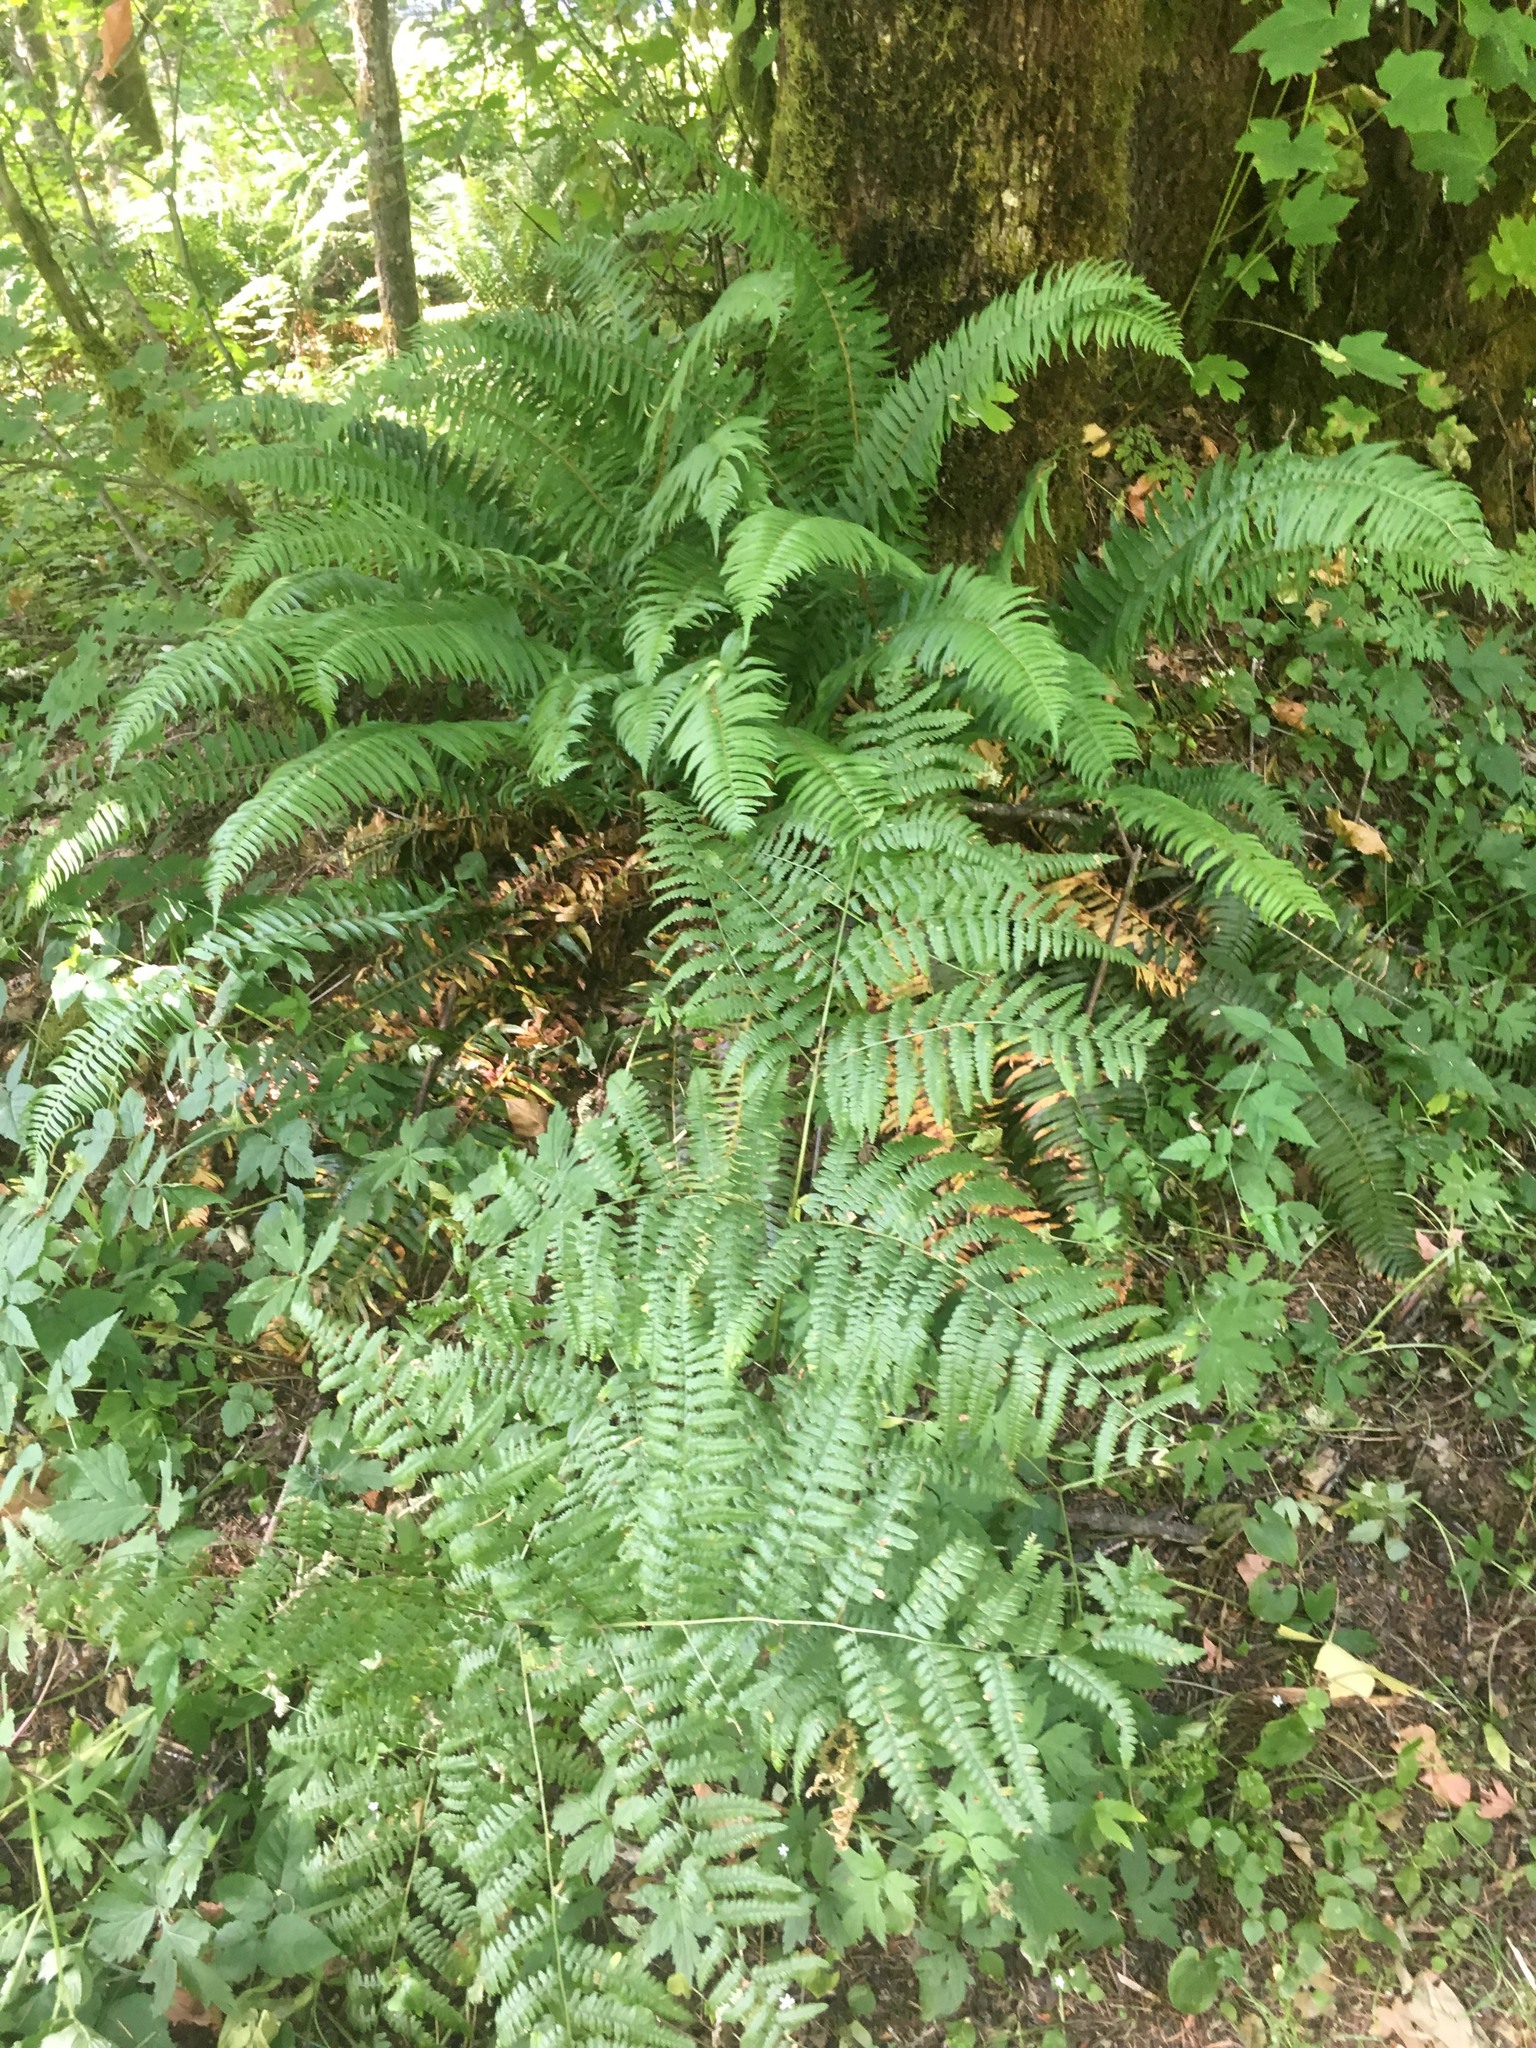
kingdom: Plantae
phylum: Tracheophyta
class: Polypodiopsida
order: Polypodiales
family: Dryopteridaceae
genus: Polystichum
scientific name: Polystichum munitum
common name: Western sword-fern
